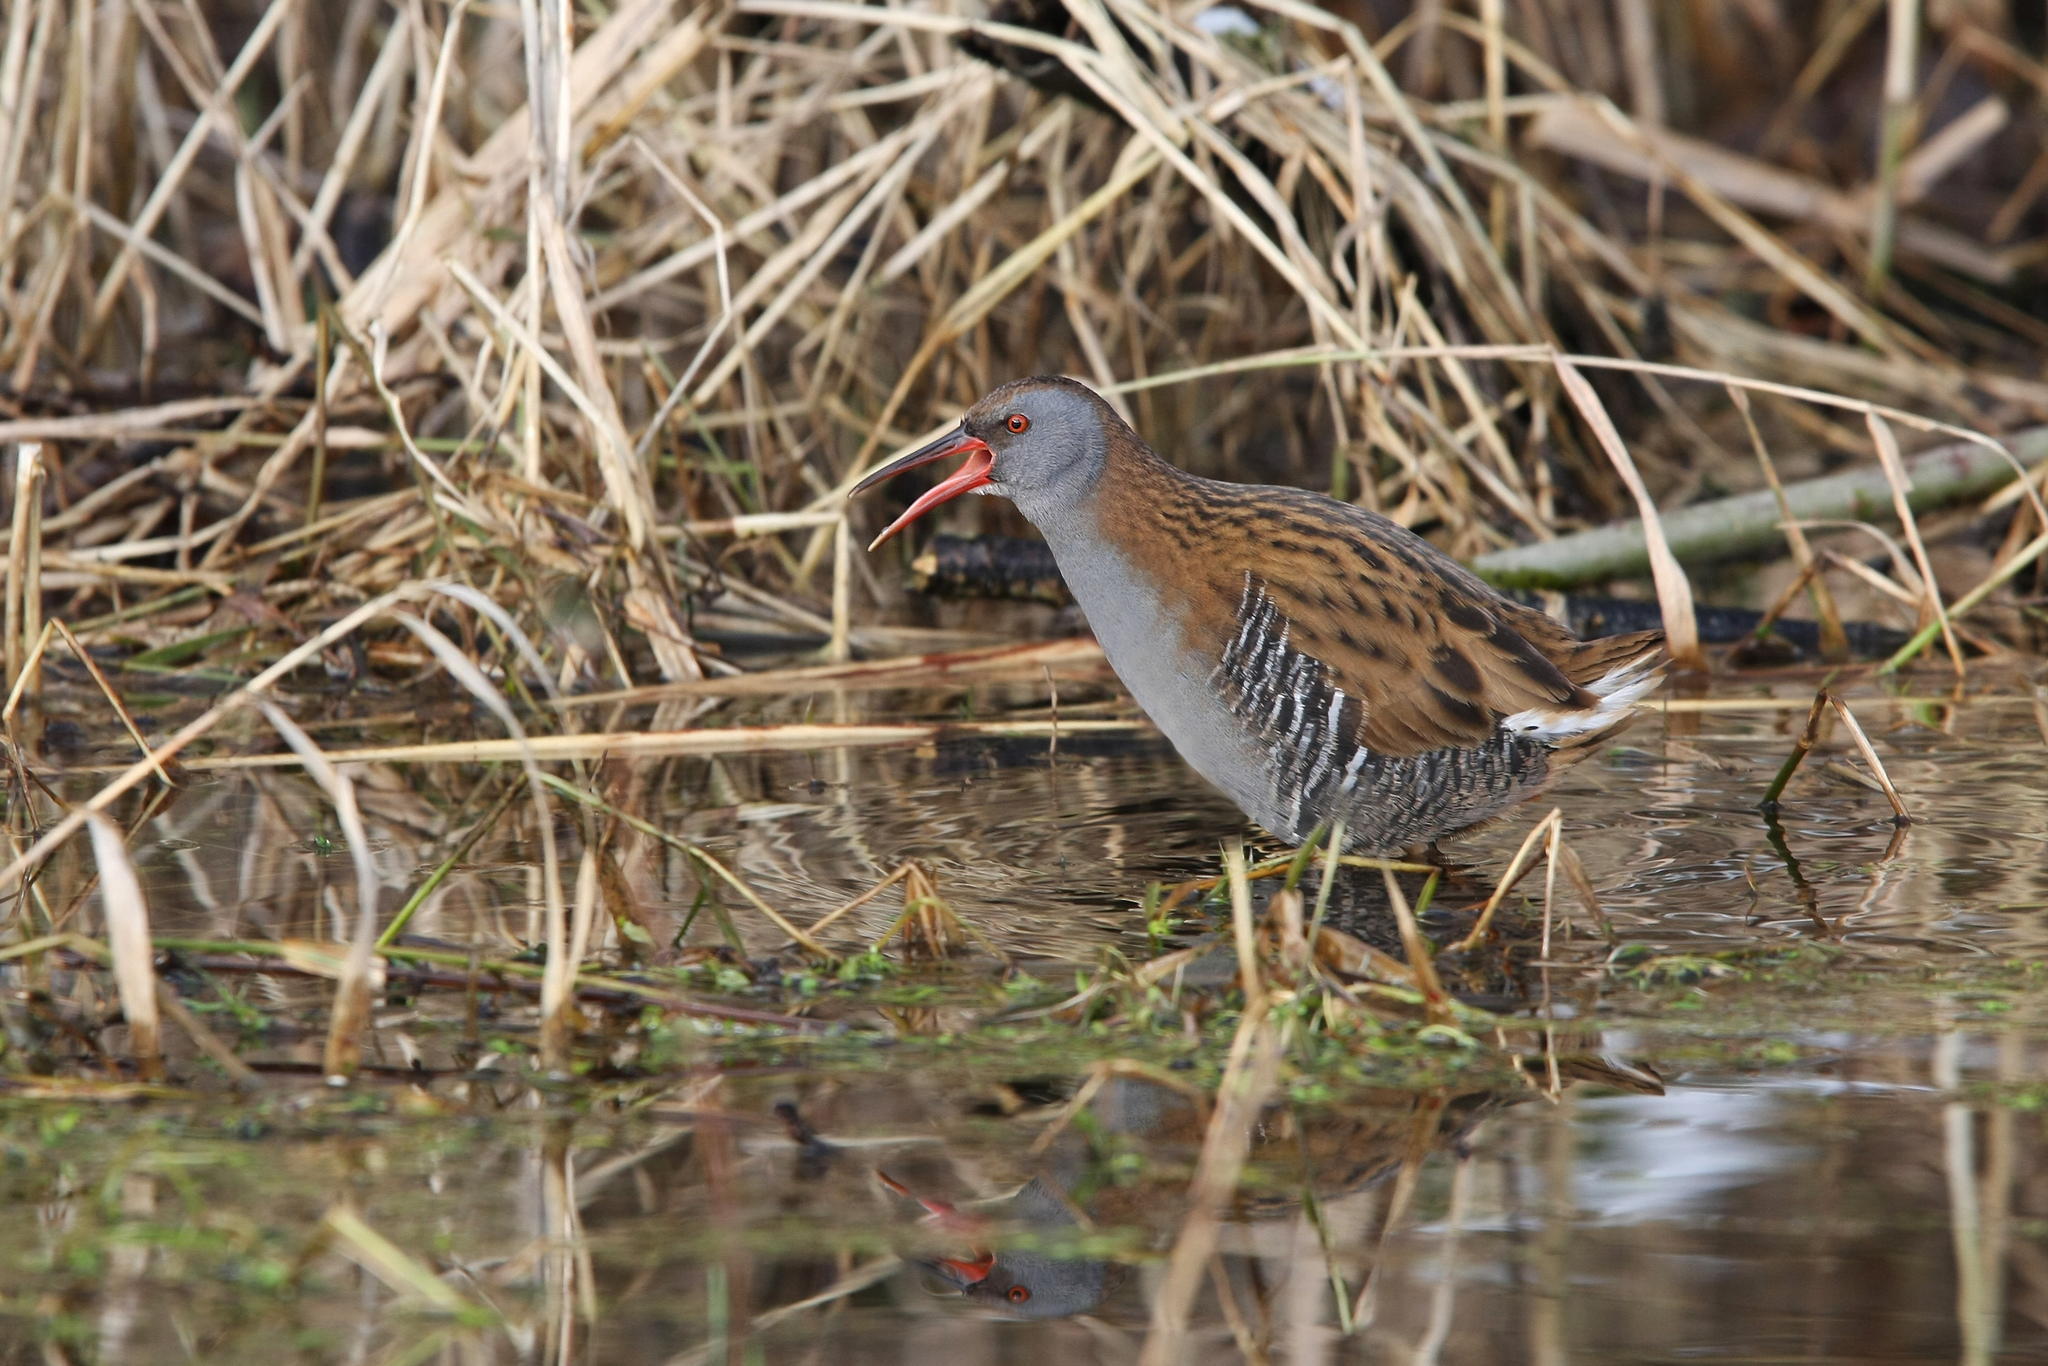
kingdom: Animalia
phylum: Chordata
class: Aves
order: Gruiformes
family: Rallidae
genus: Rallus
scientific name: Rallus aquaticus
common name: Water rail
